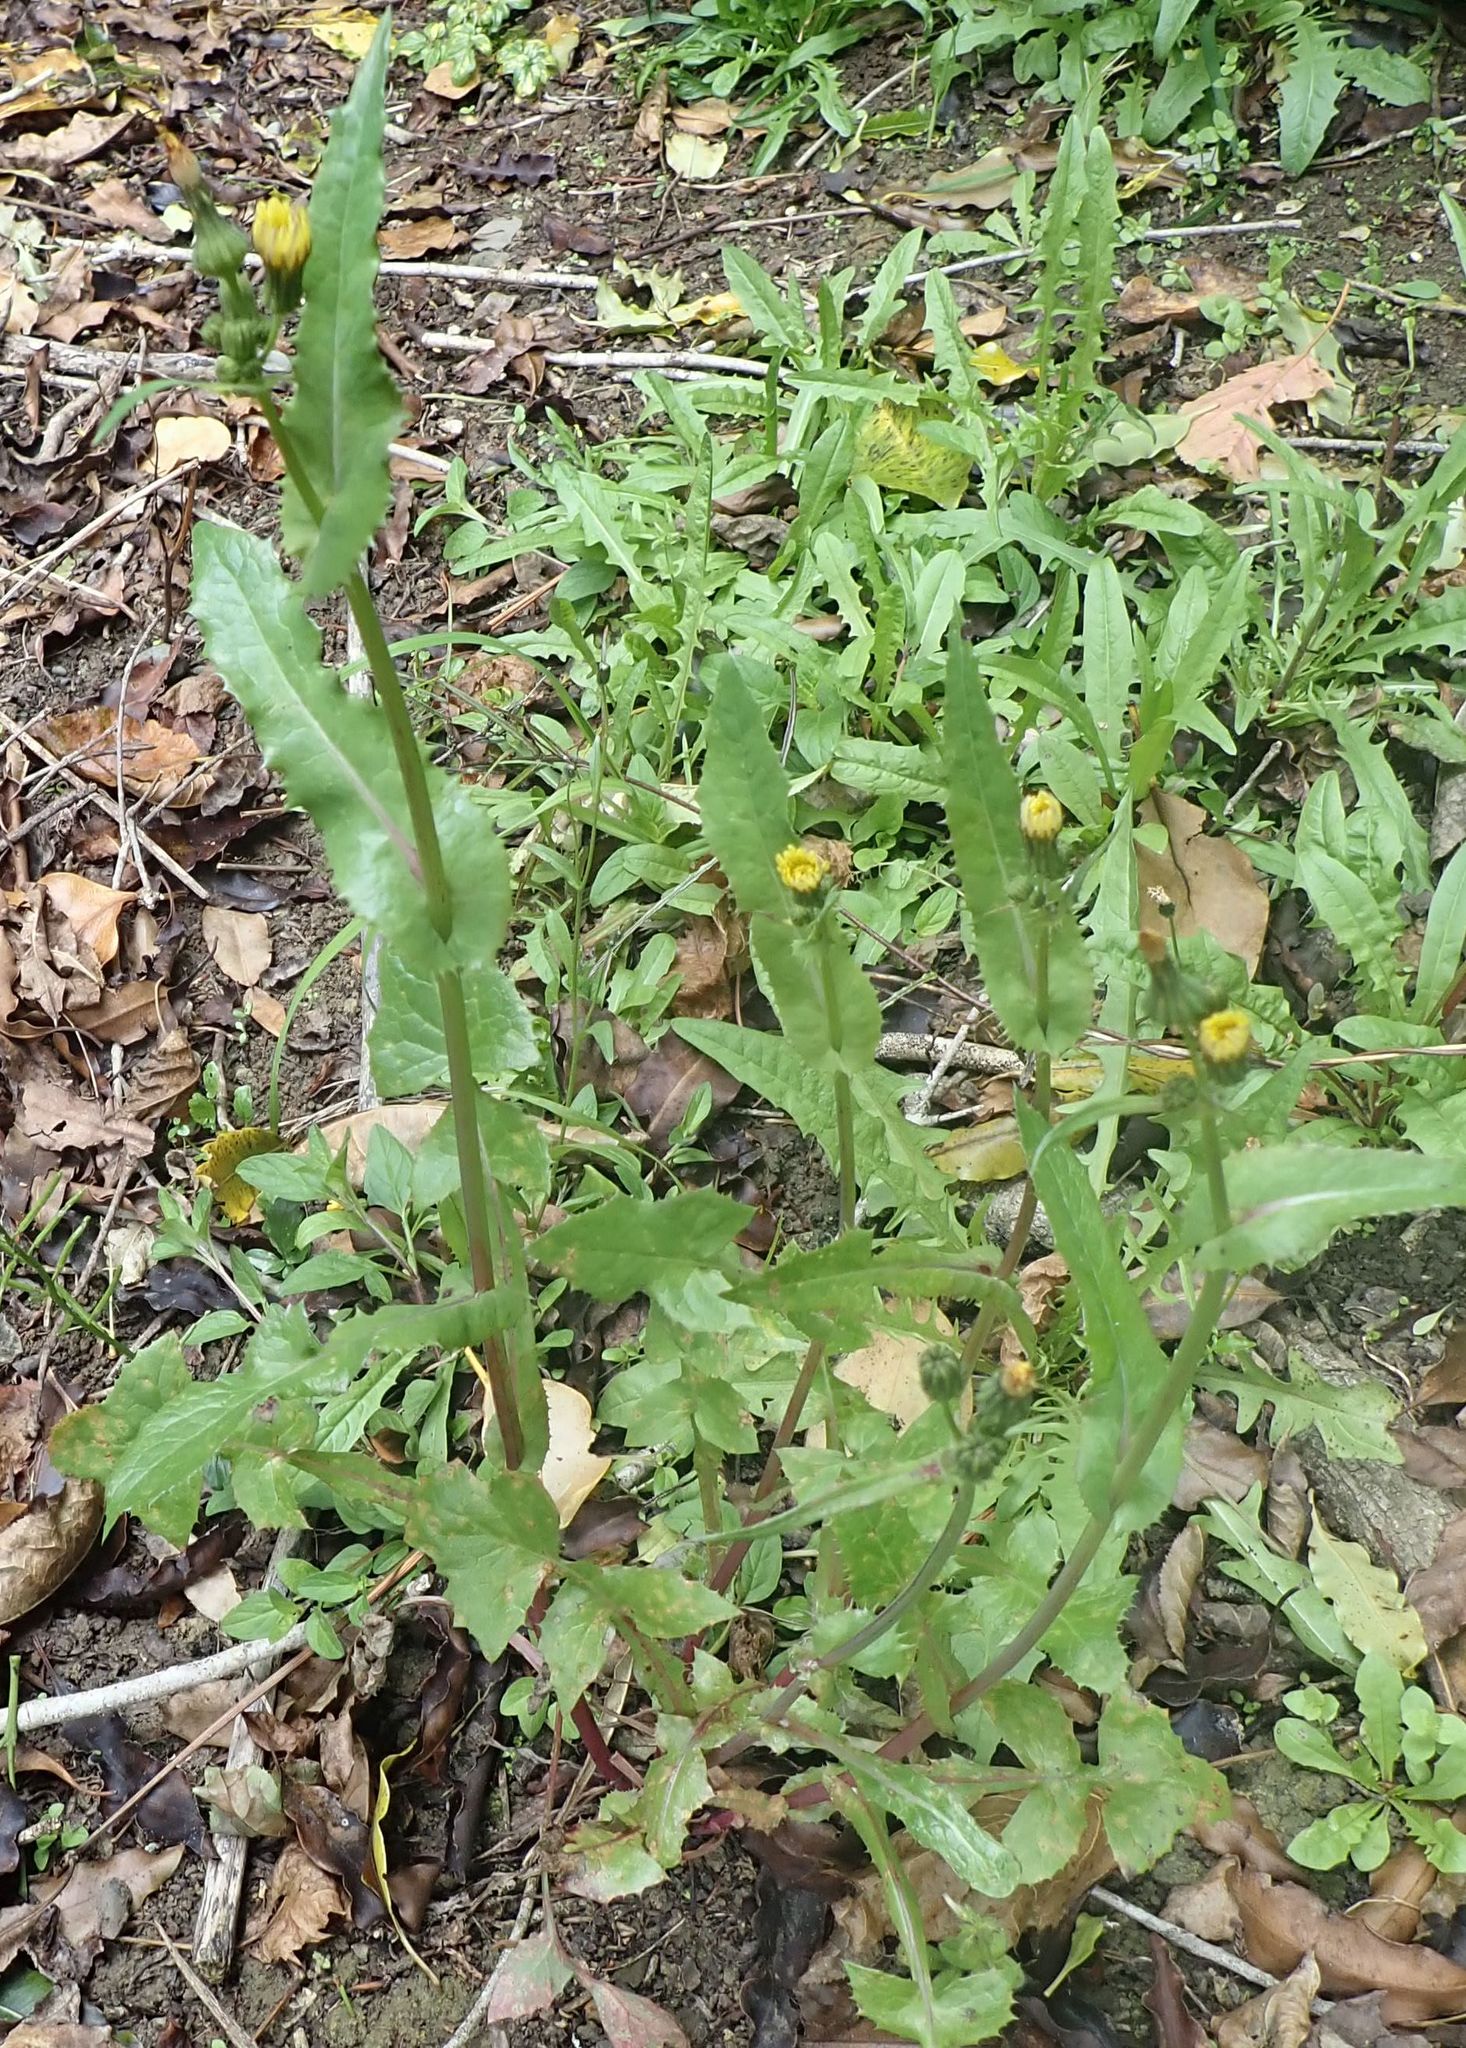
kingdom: Plantae
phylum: Tracheophyta
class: Magnoliopsida
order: Asterales
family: Asteraceae
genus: Sonchus
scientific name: Sonchus asper
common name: Prickly sow-thistle
